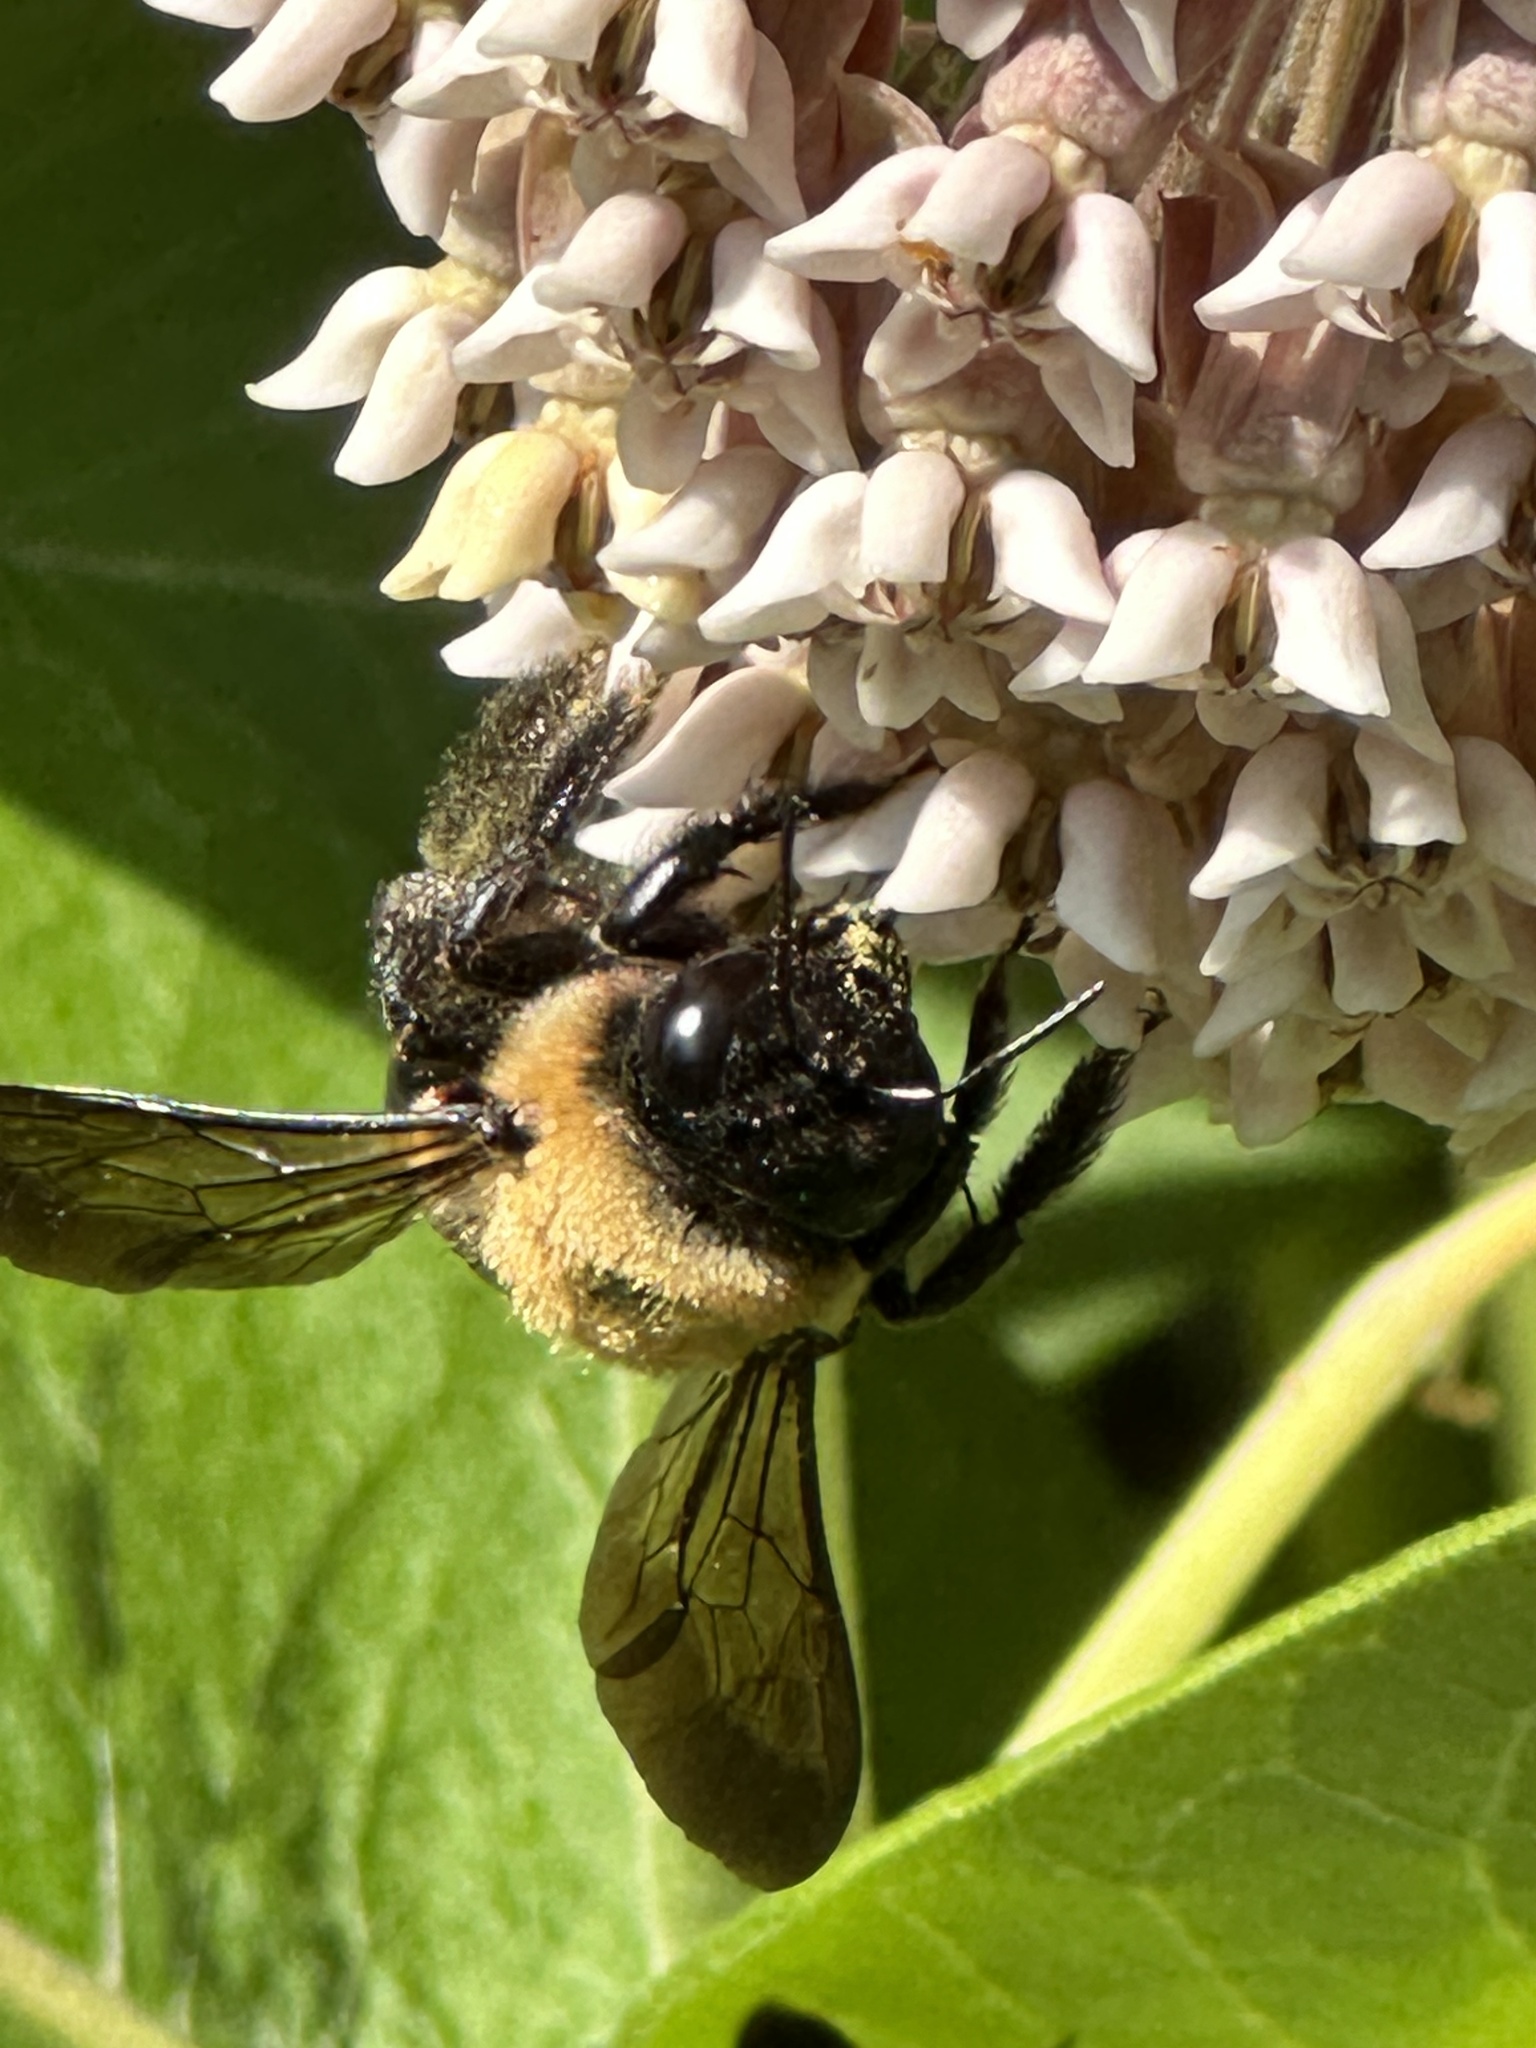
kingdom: Animalia
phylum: Arthropoda
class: Insecta
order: Hymenoptera
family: Apidae
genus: Xylocopa
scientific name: Xylocopa virginica
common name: Carpenter bee
